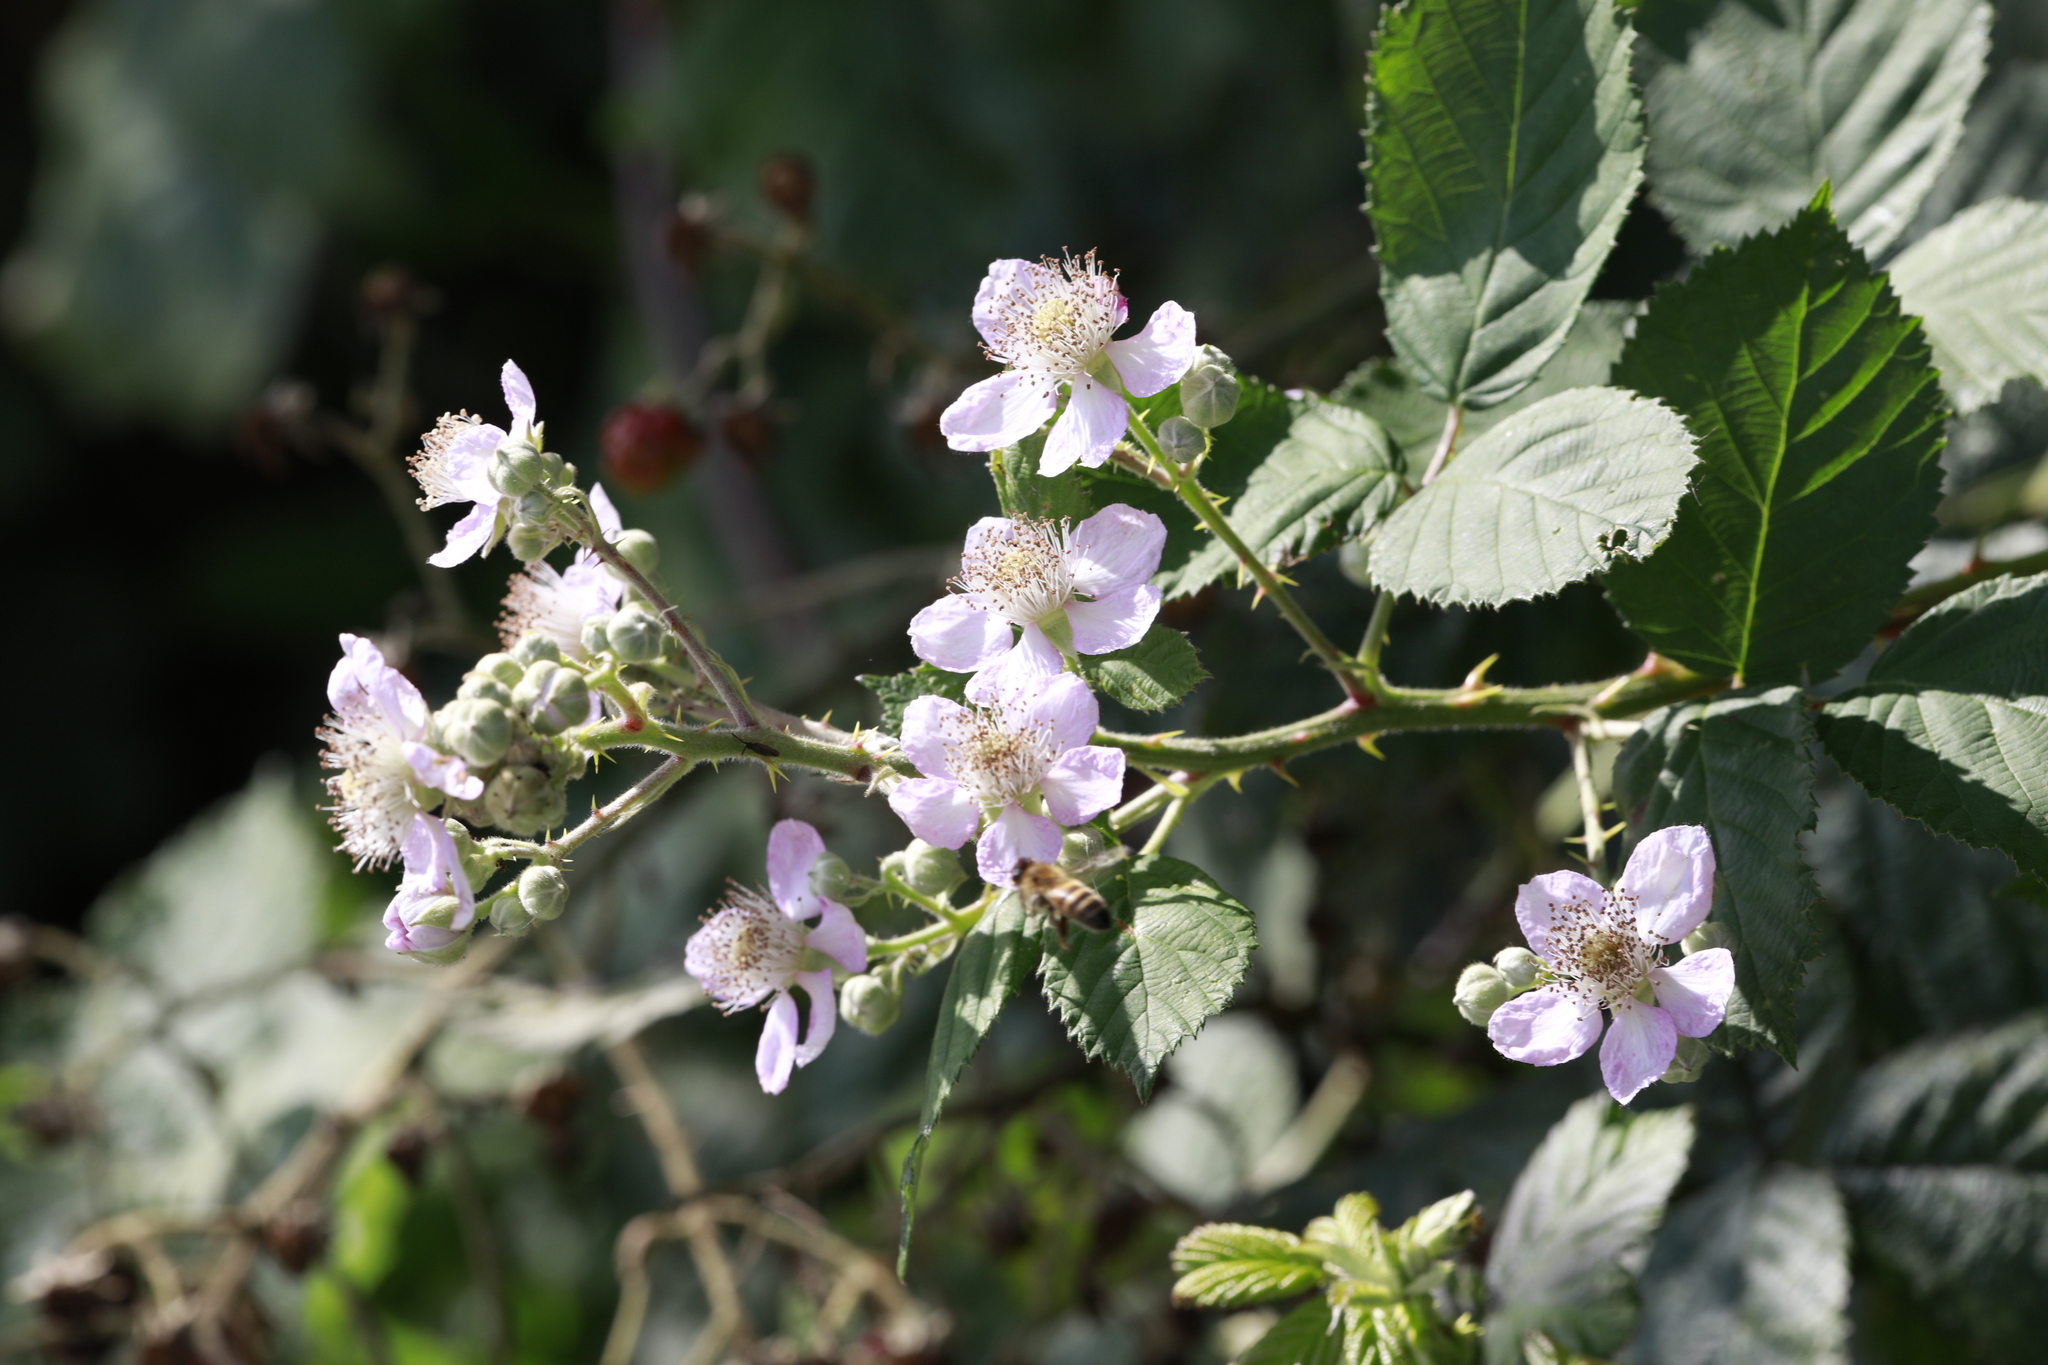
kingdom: Plantae
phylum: Tracheophyta
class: Magnoliopsida
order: Rosales
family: Rosaceae
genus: Rubus
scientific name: Rubus armeniacus
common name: Himalayan blackberry
